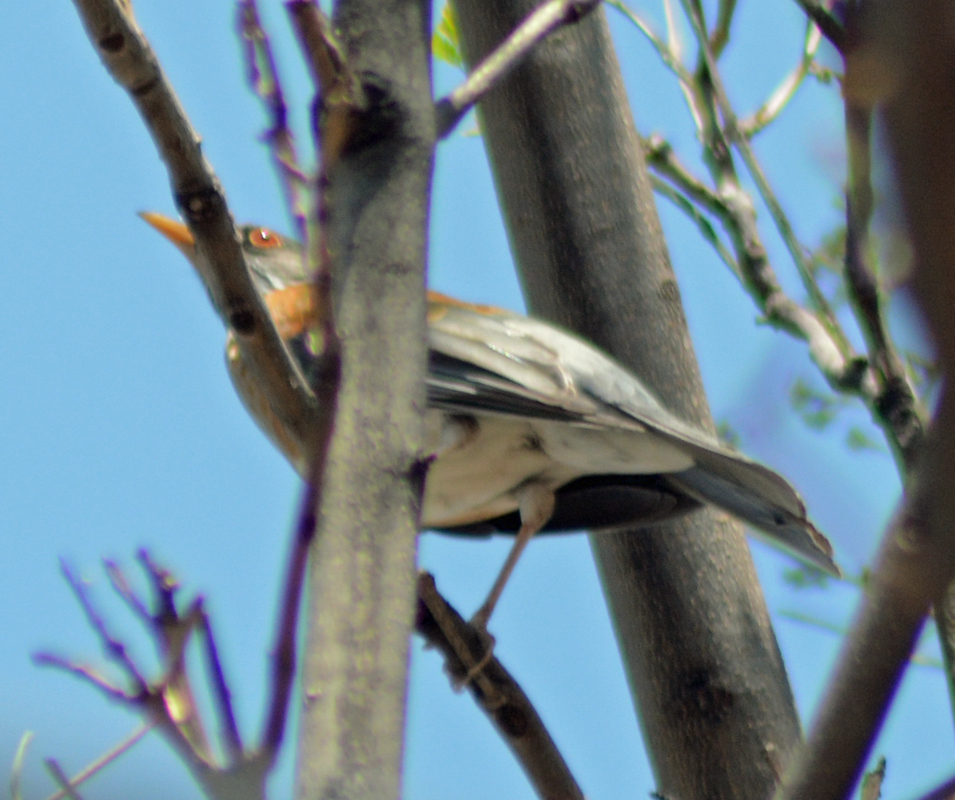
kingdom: Animalia
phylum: Chordata
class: Aves
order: Passeriformes
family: Turdidae
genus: Turdus
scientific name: Turdus rufopalliatus
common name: Rufous-backed robin
